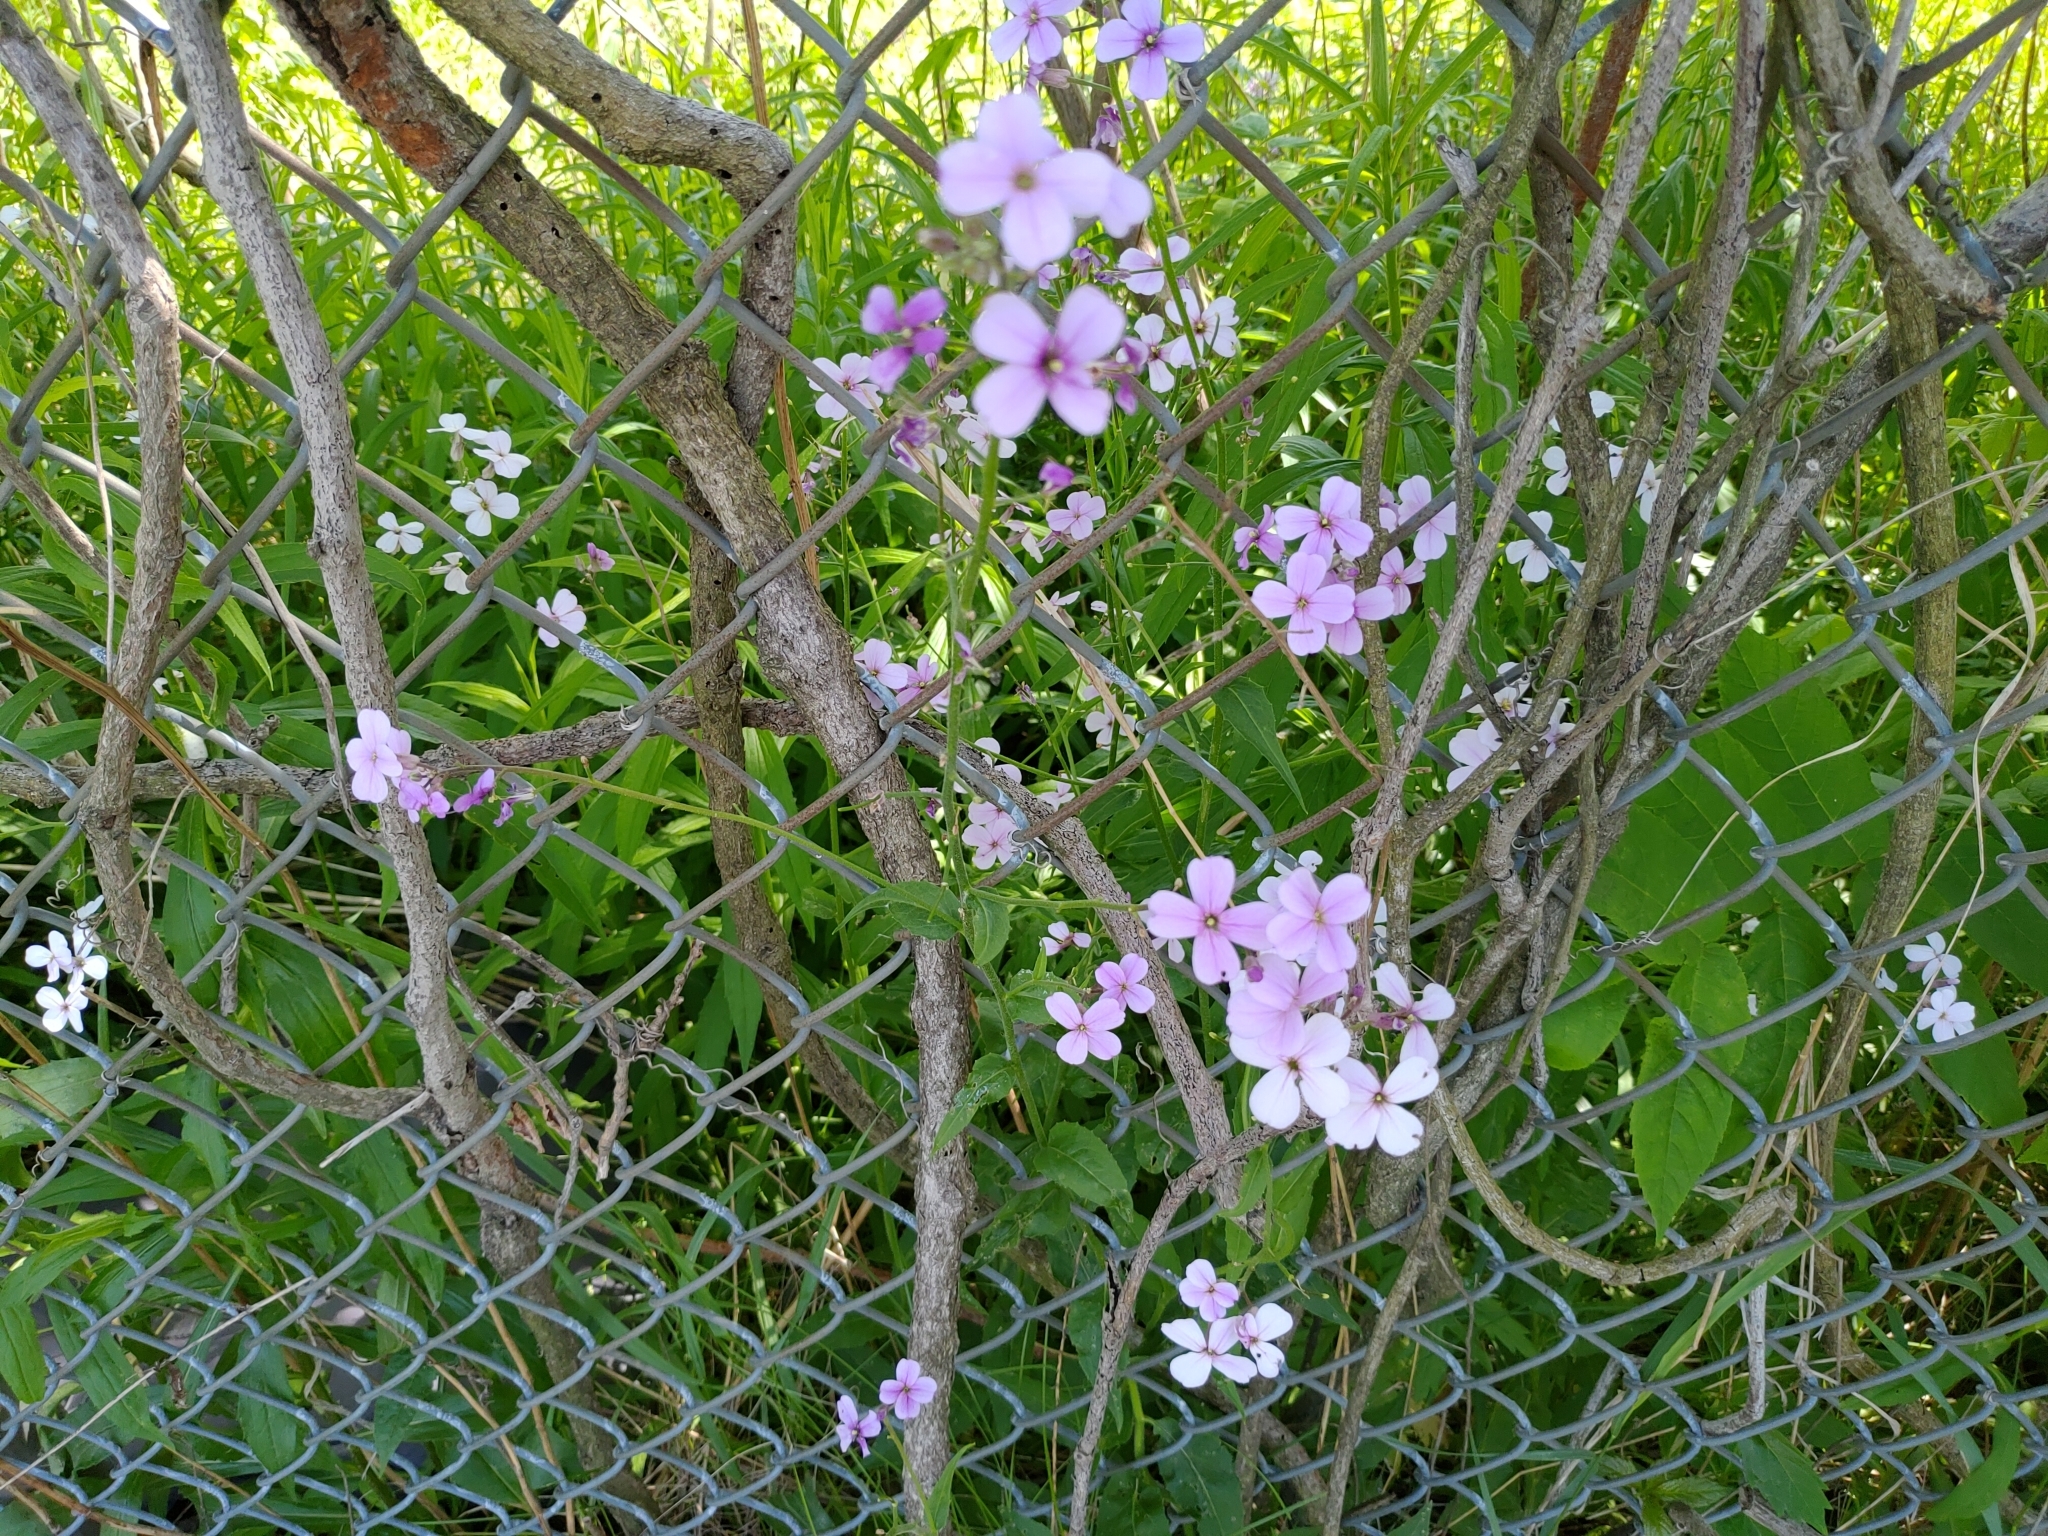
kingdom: Plantae
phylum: Tracheophyta
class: Magnoliopsida
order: Brassicales
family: Brassicaceae
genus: Hesperis
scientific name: Hesperis matronalis
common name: Dame's-violet
